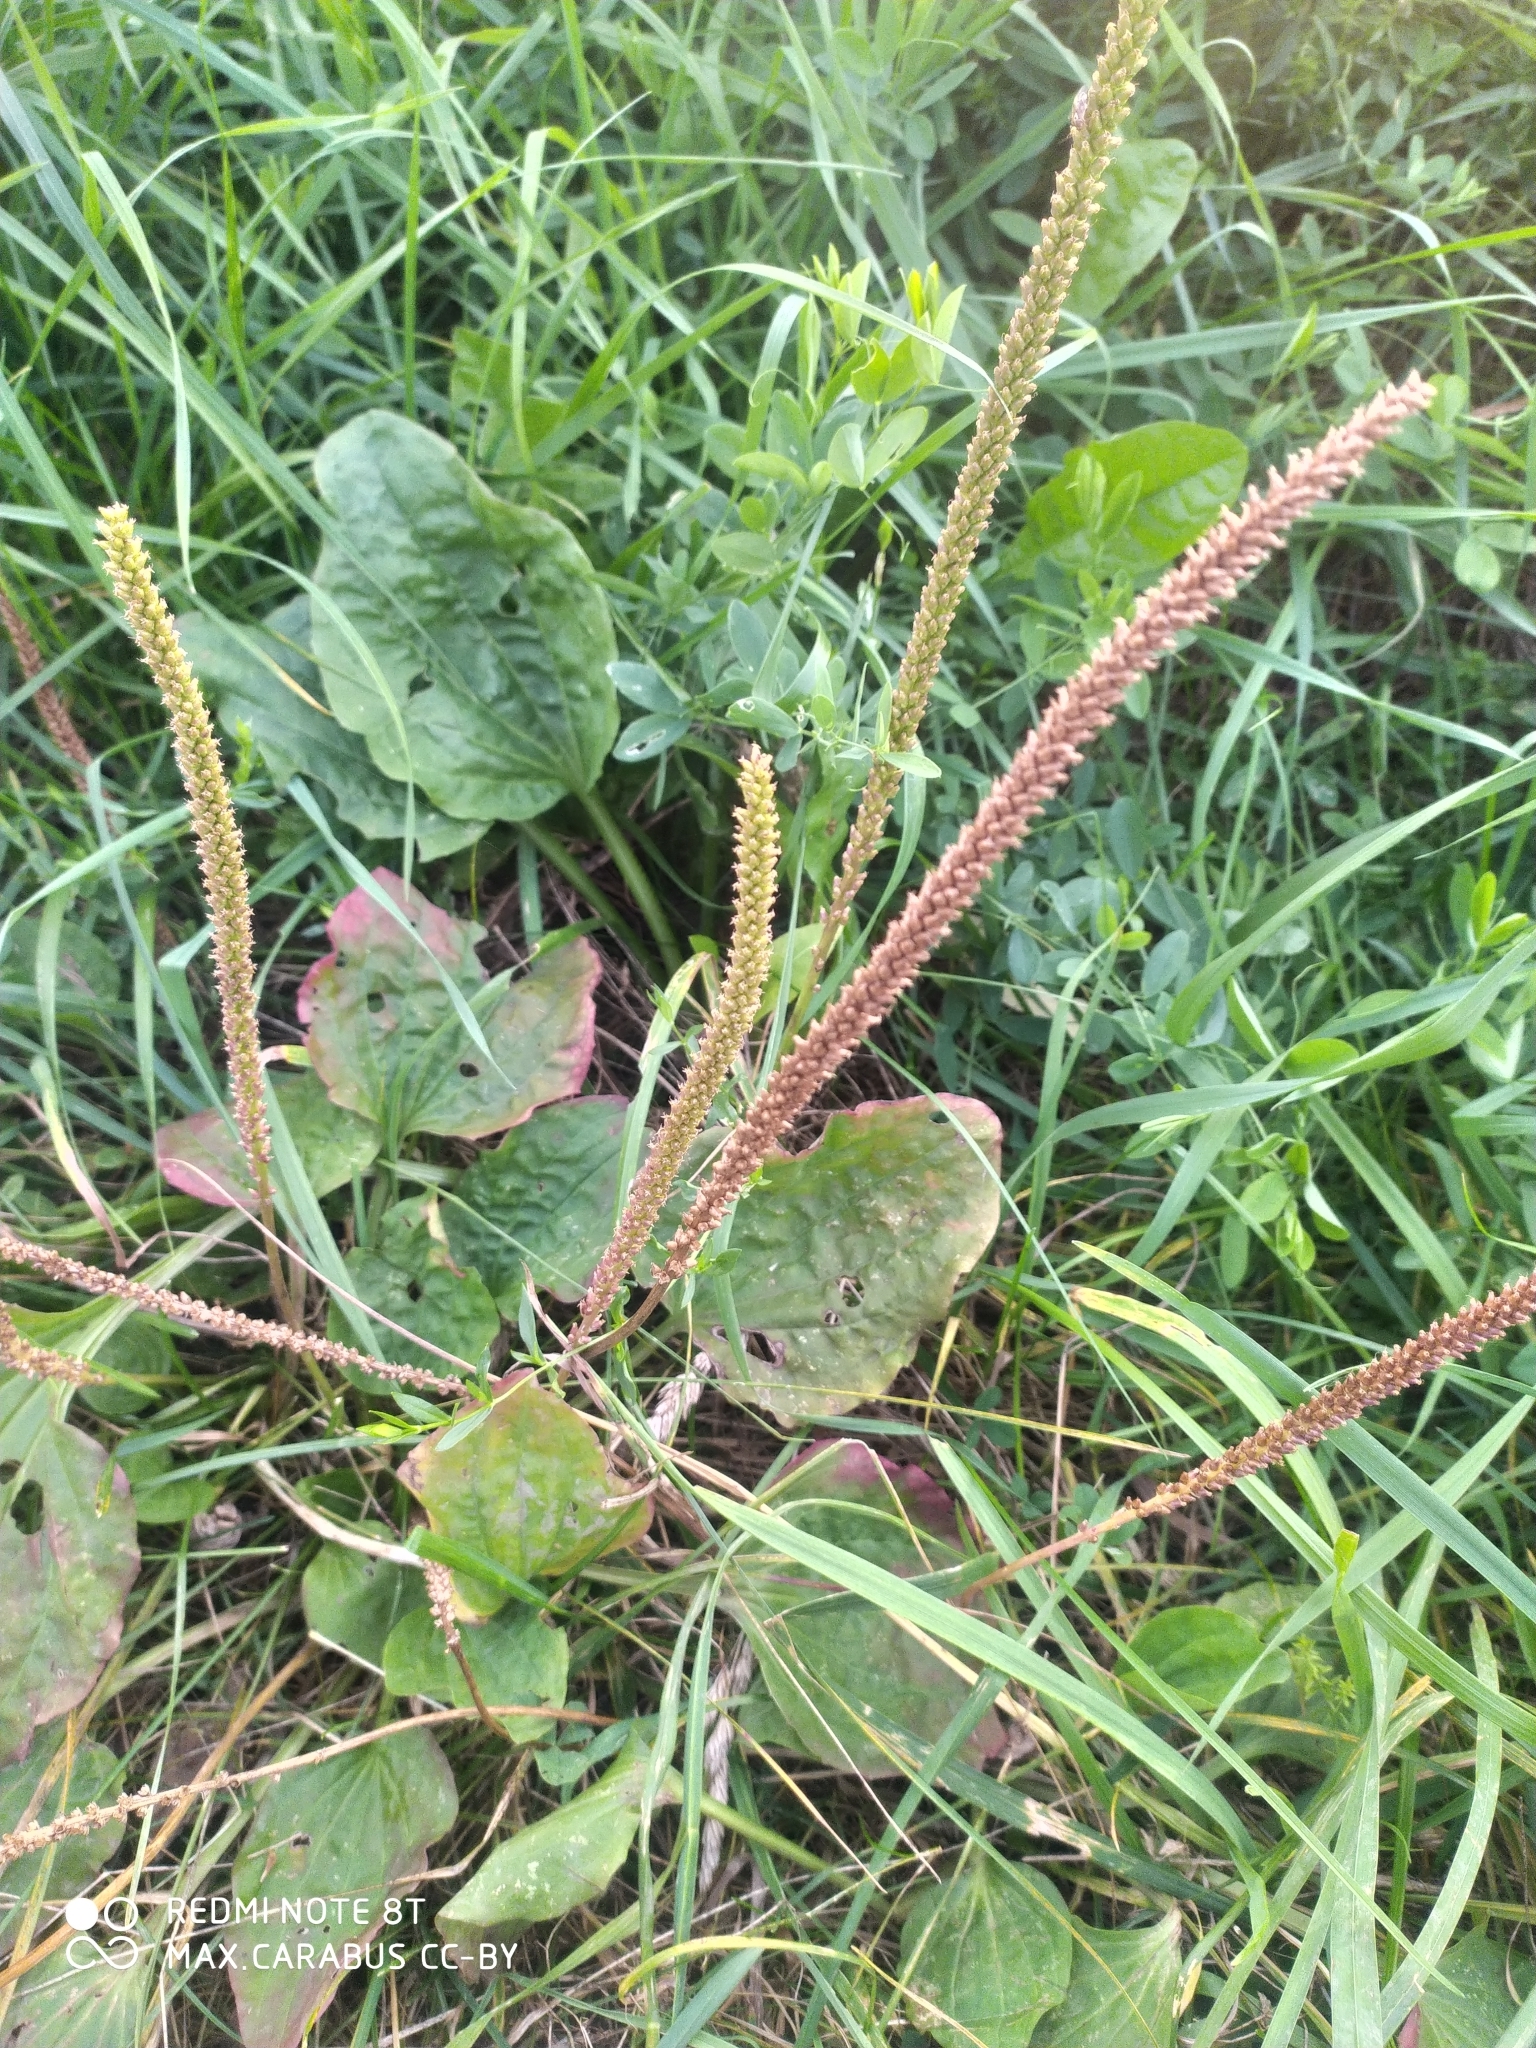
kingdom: Plantae
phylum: Tracheophyta
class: Magnoliopsida
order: Lamiales
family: Plantaginaceae
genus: Plantago
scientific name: Plantago major
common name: Common plantain
